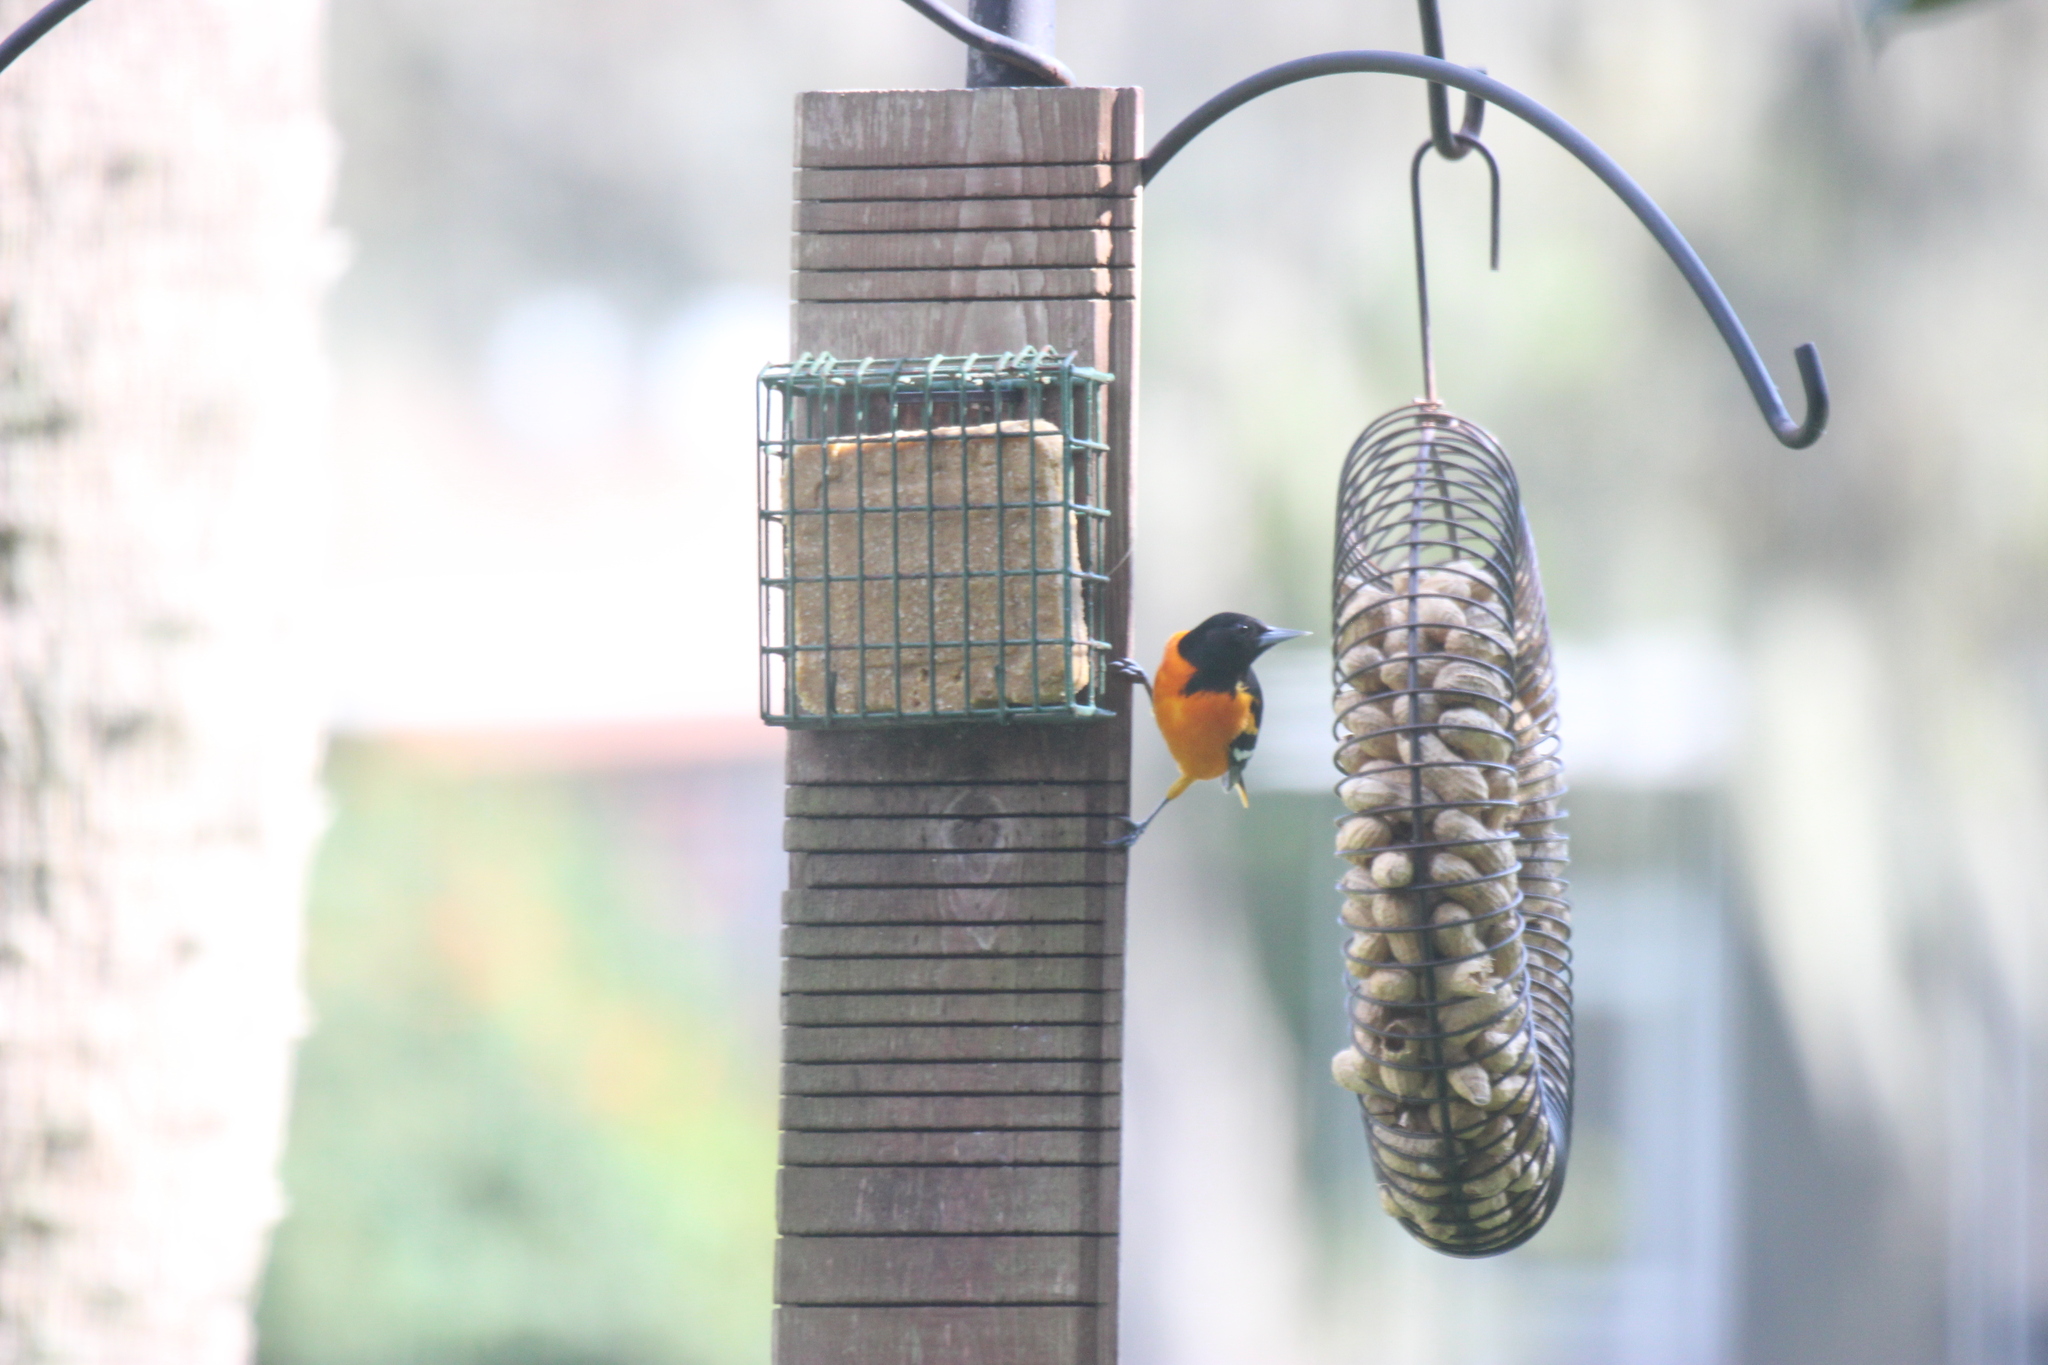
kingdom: Animalia
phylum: Chordata
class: Aves
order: Passeriformes
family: Icteridae
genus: Icterus
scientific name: Icterus galbula
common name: Baltimore oriole
